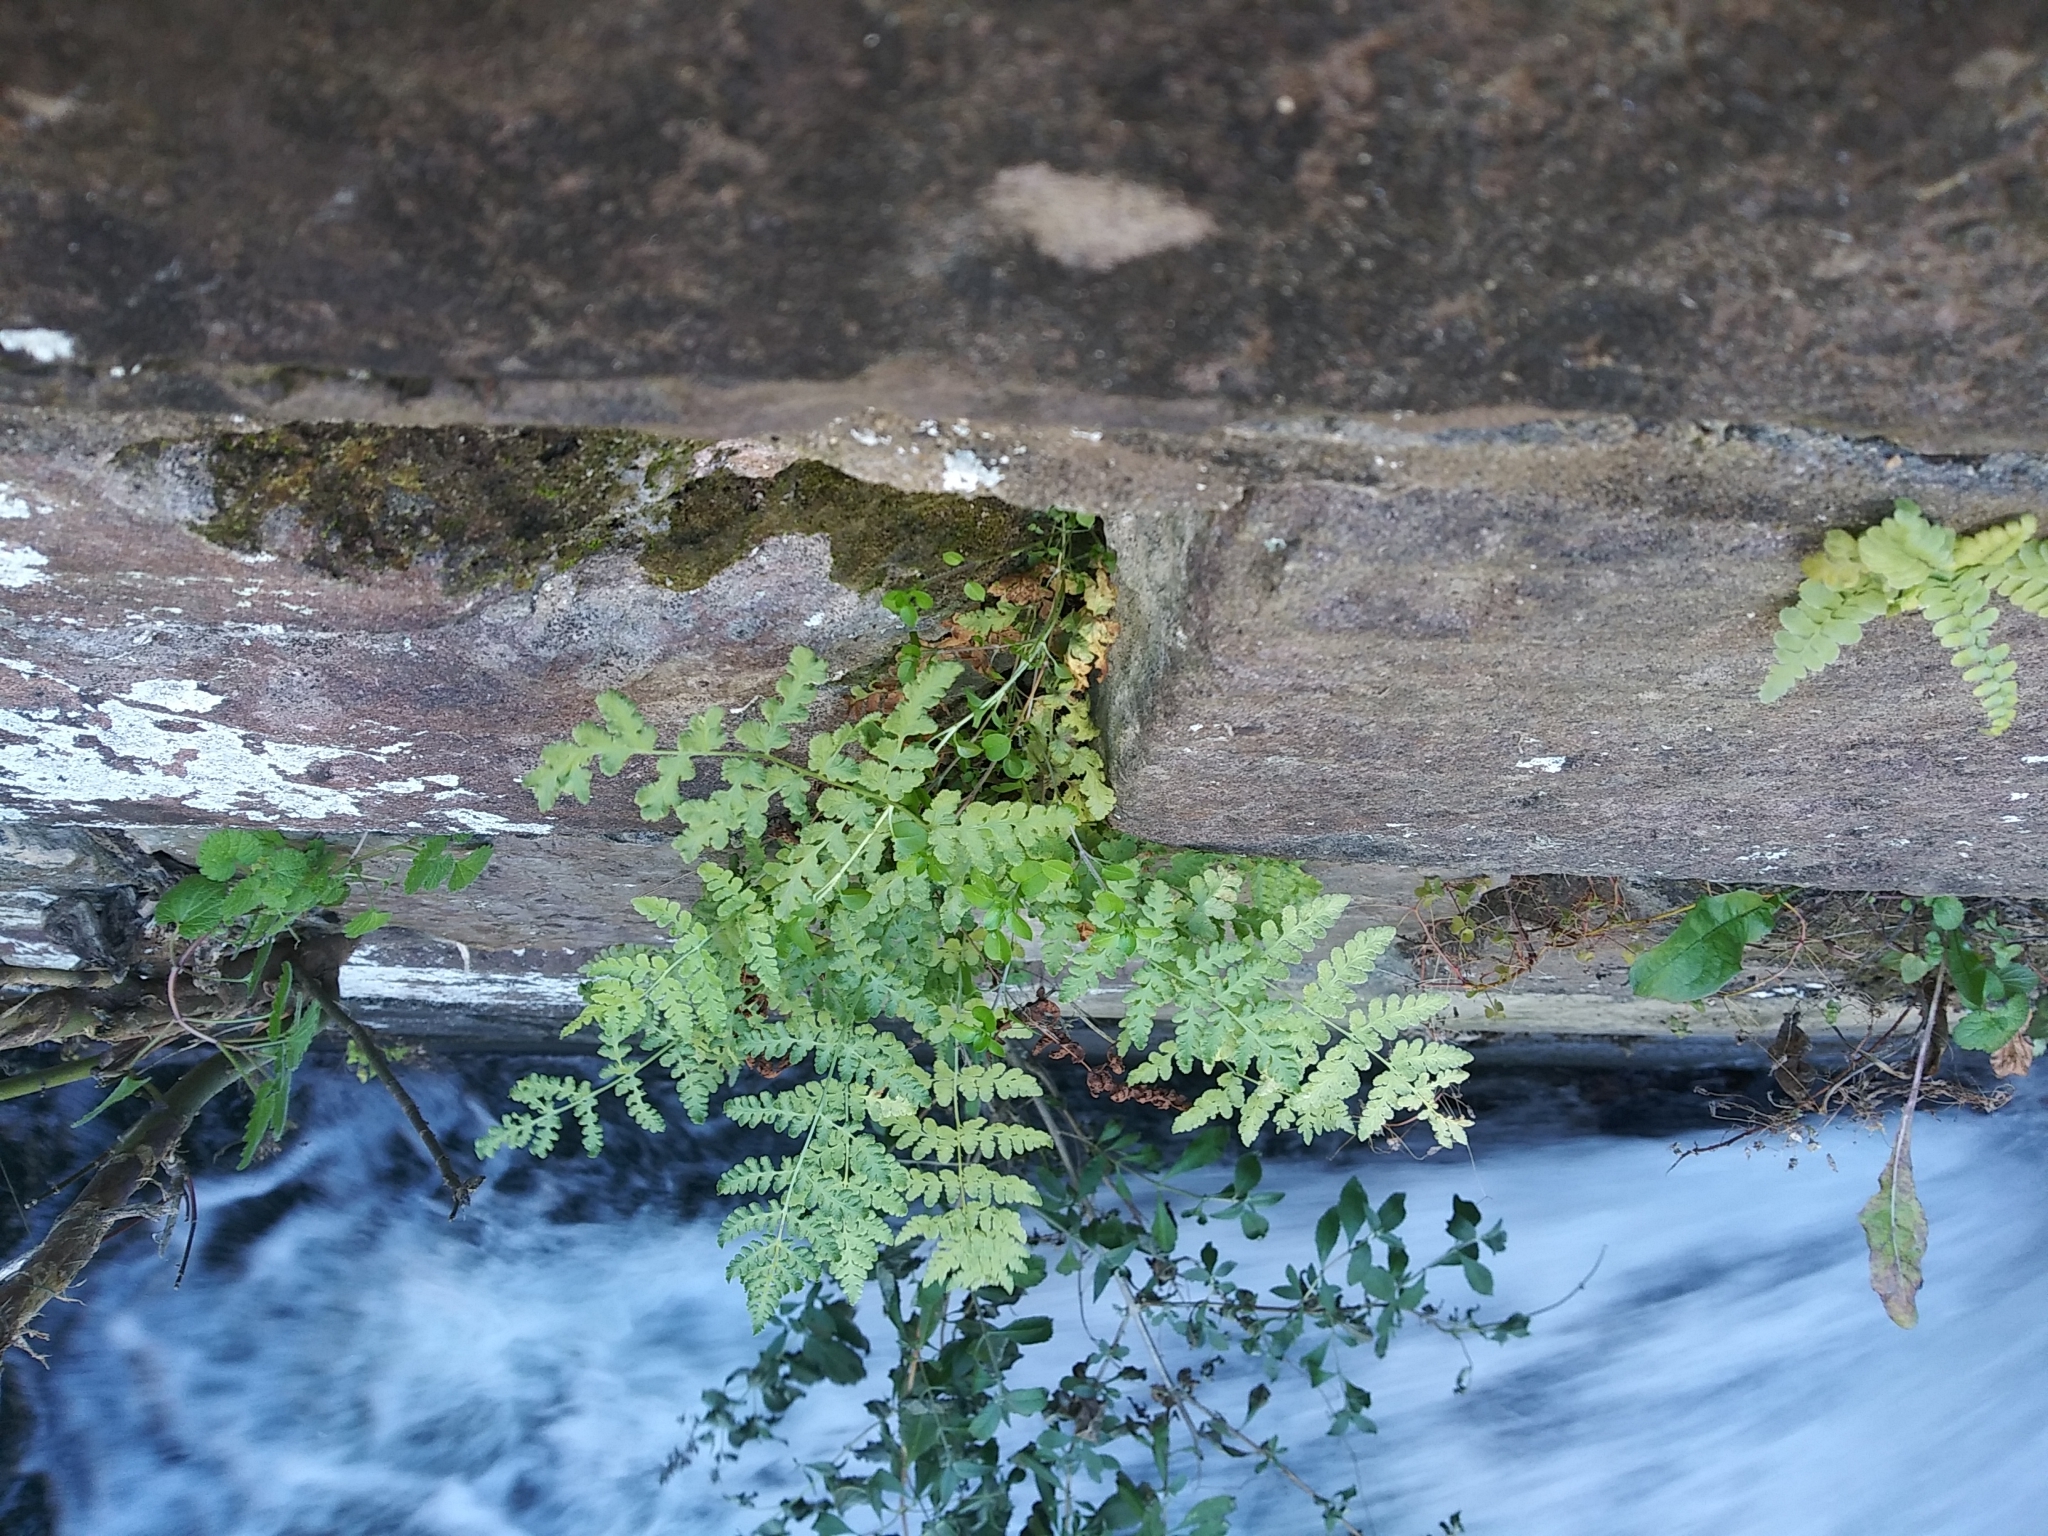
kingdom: Plantae
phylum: Tracheophyta
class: Polypodiopsida
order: Polypodiales
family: Woodsiaceae
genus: Physematium
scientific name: Physematium obtusum
